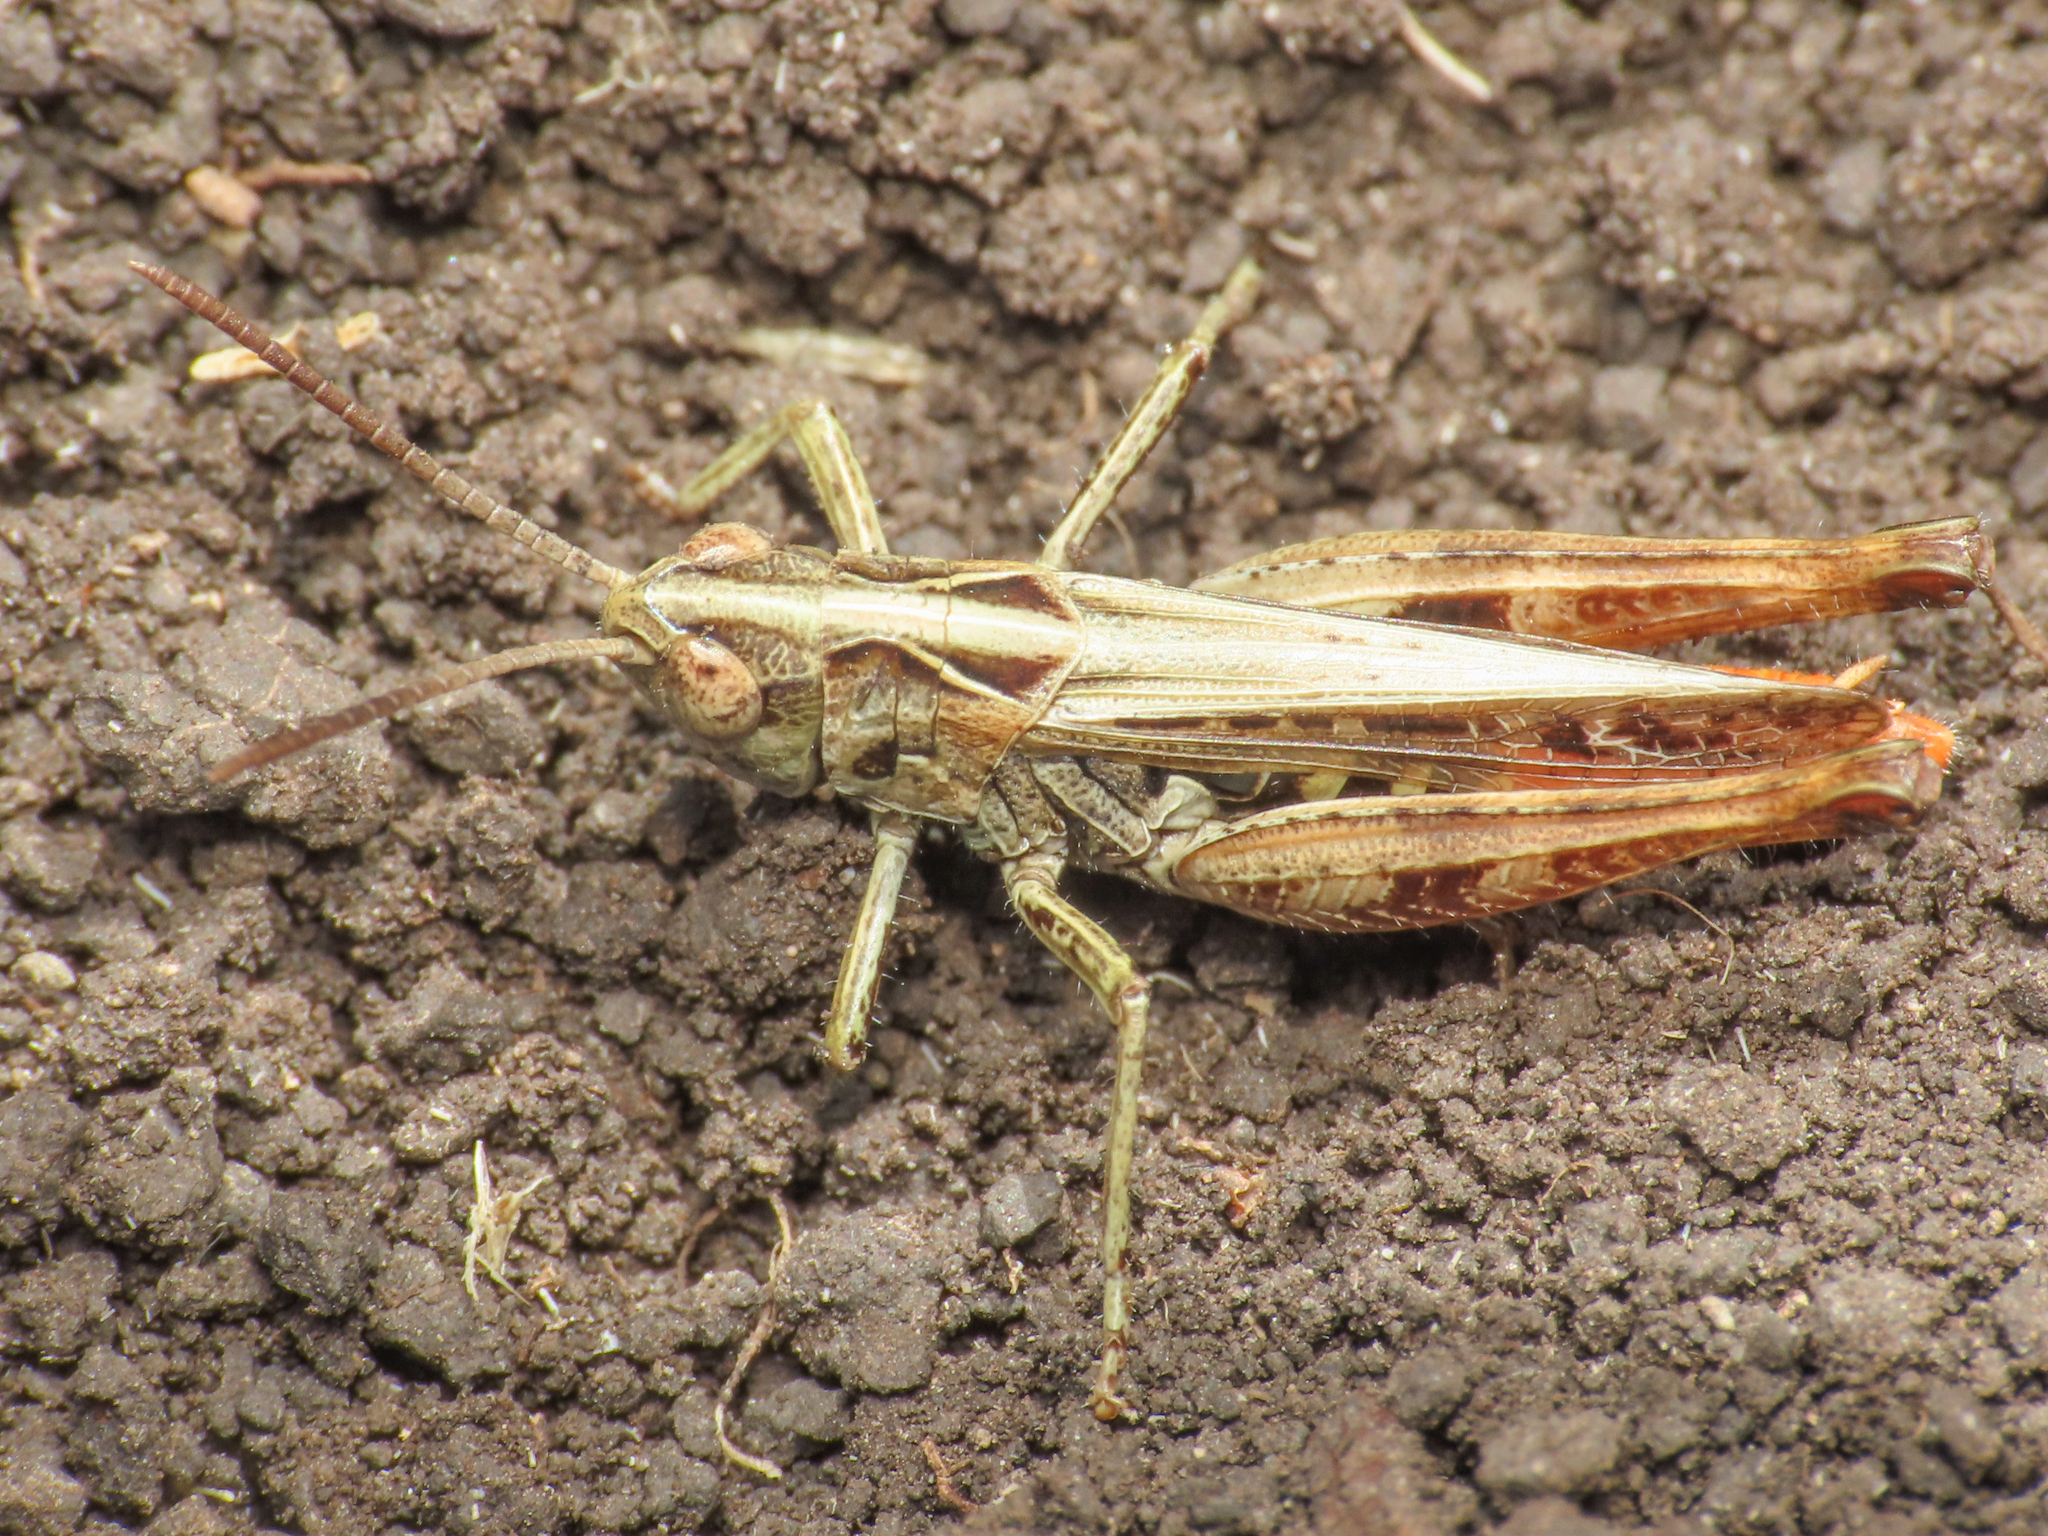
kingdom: Animalia
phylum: Arthropoda
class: Insecta
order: Orthoptera
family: Acrididae
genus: Stenobothrus
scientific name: Stenobothrus apenninus
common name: Apennine grasshopper
